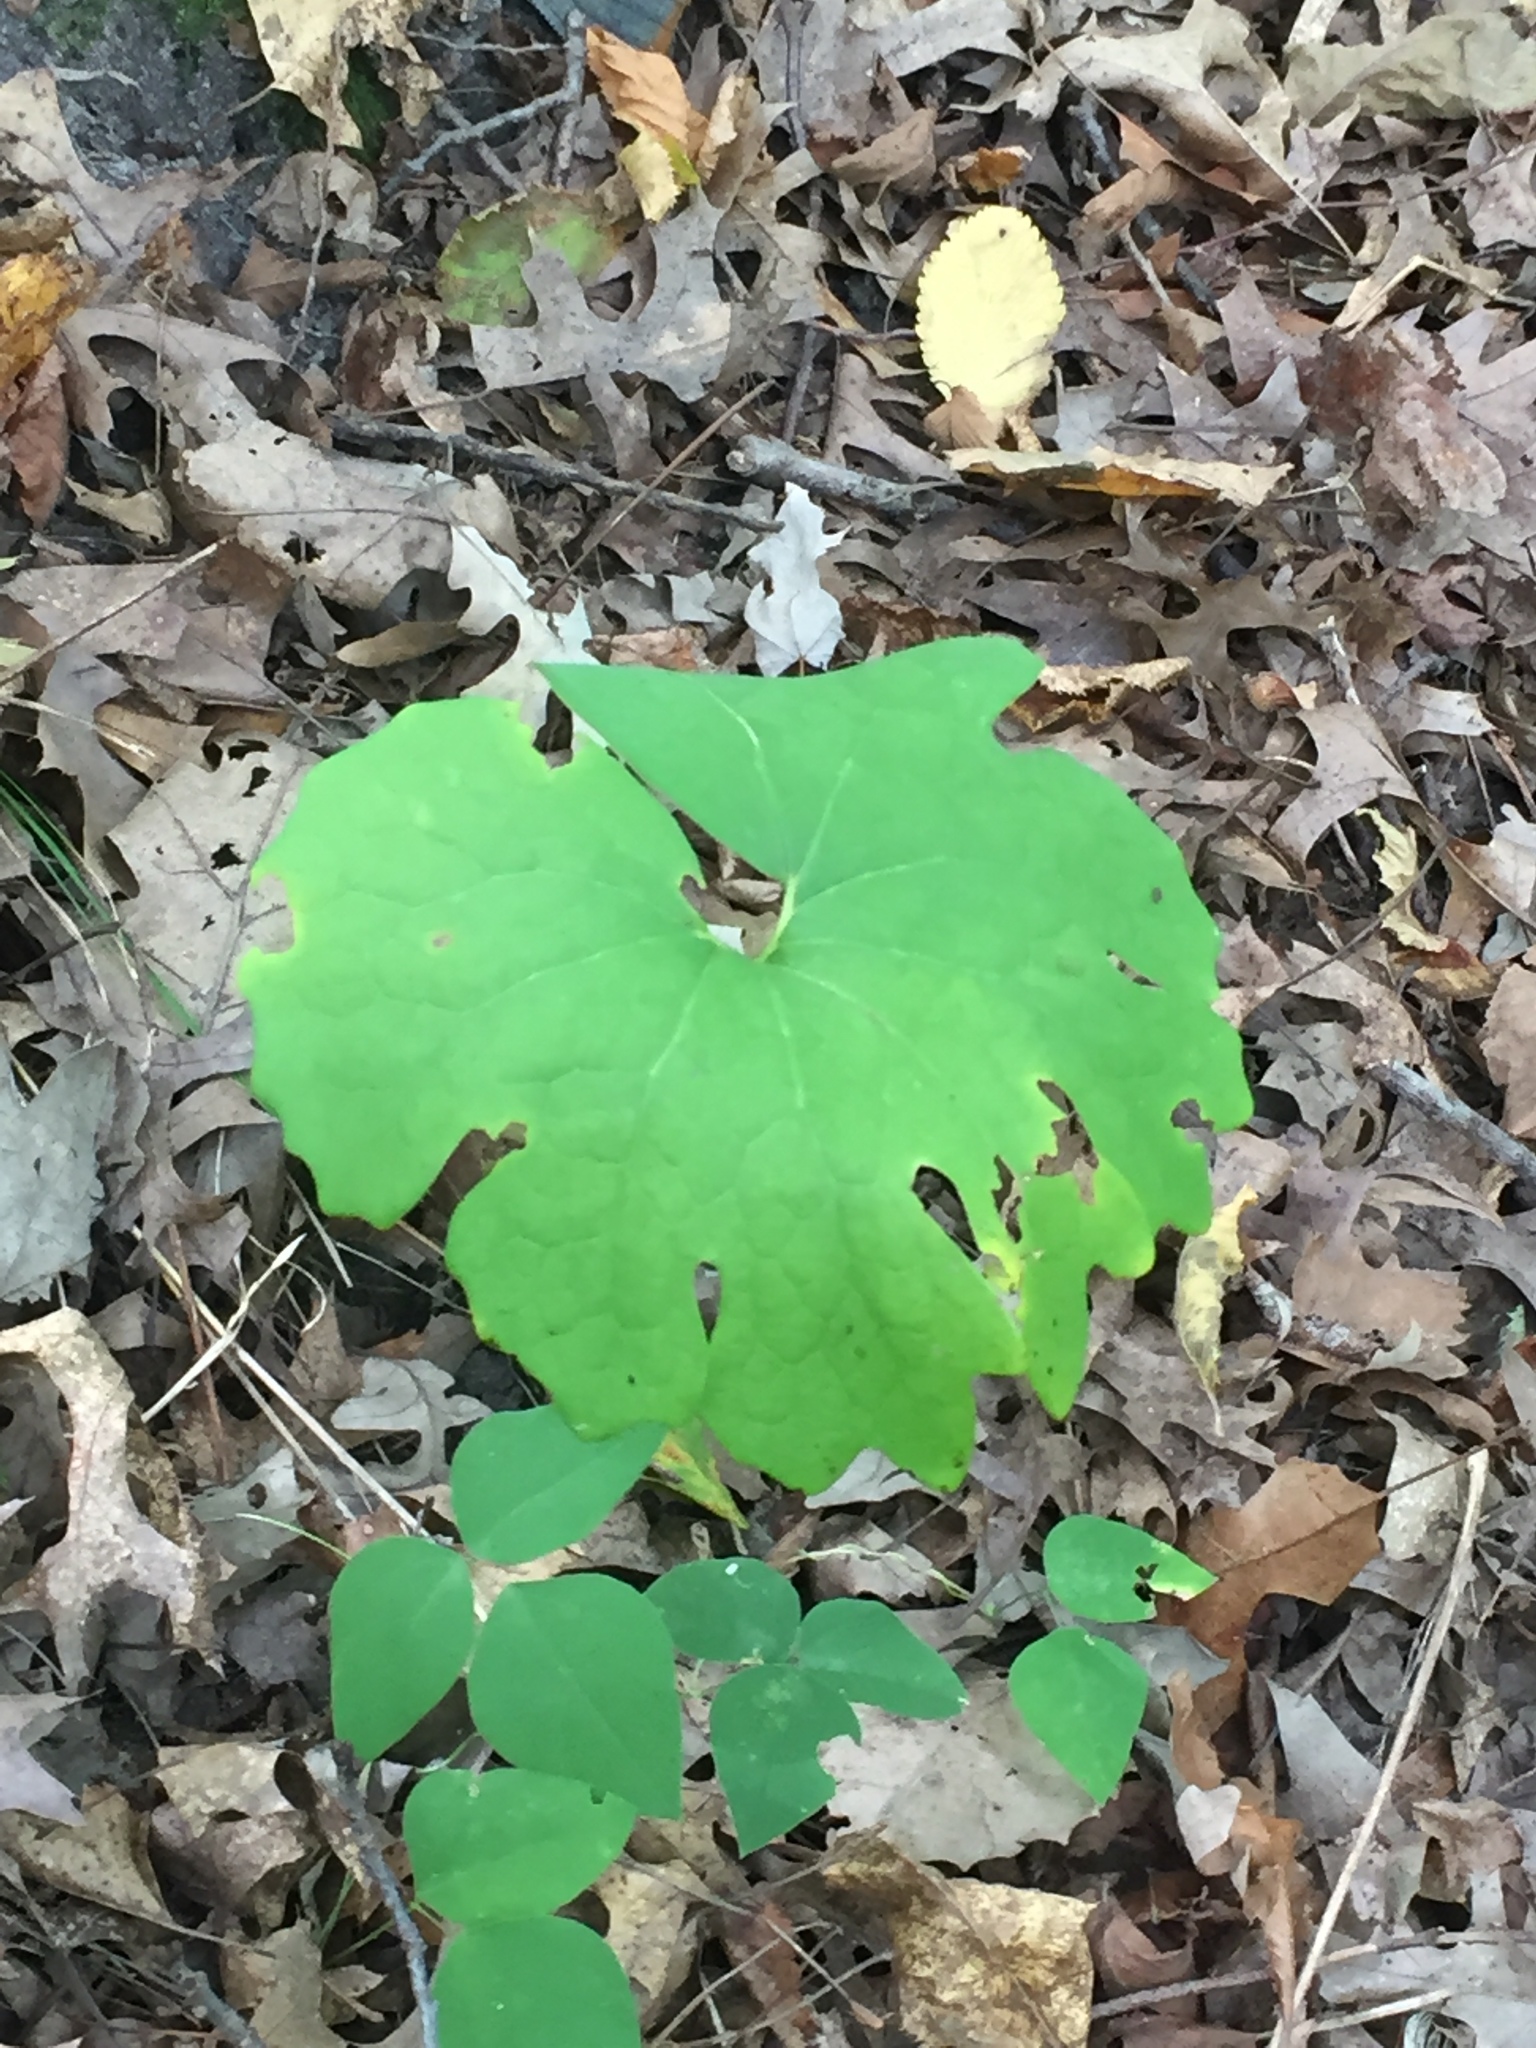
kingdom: Plantae
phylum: Tracheophyta
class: Magnoliopsida
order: Ranunculales
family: Papaveraceae
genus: Sanguinaria
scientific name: Sanguinaria canadensis
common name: Bloodroot
